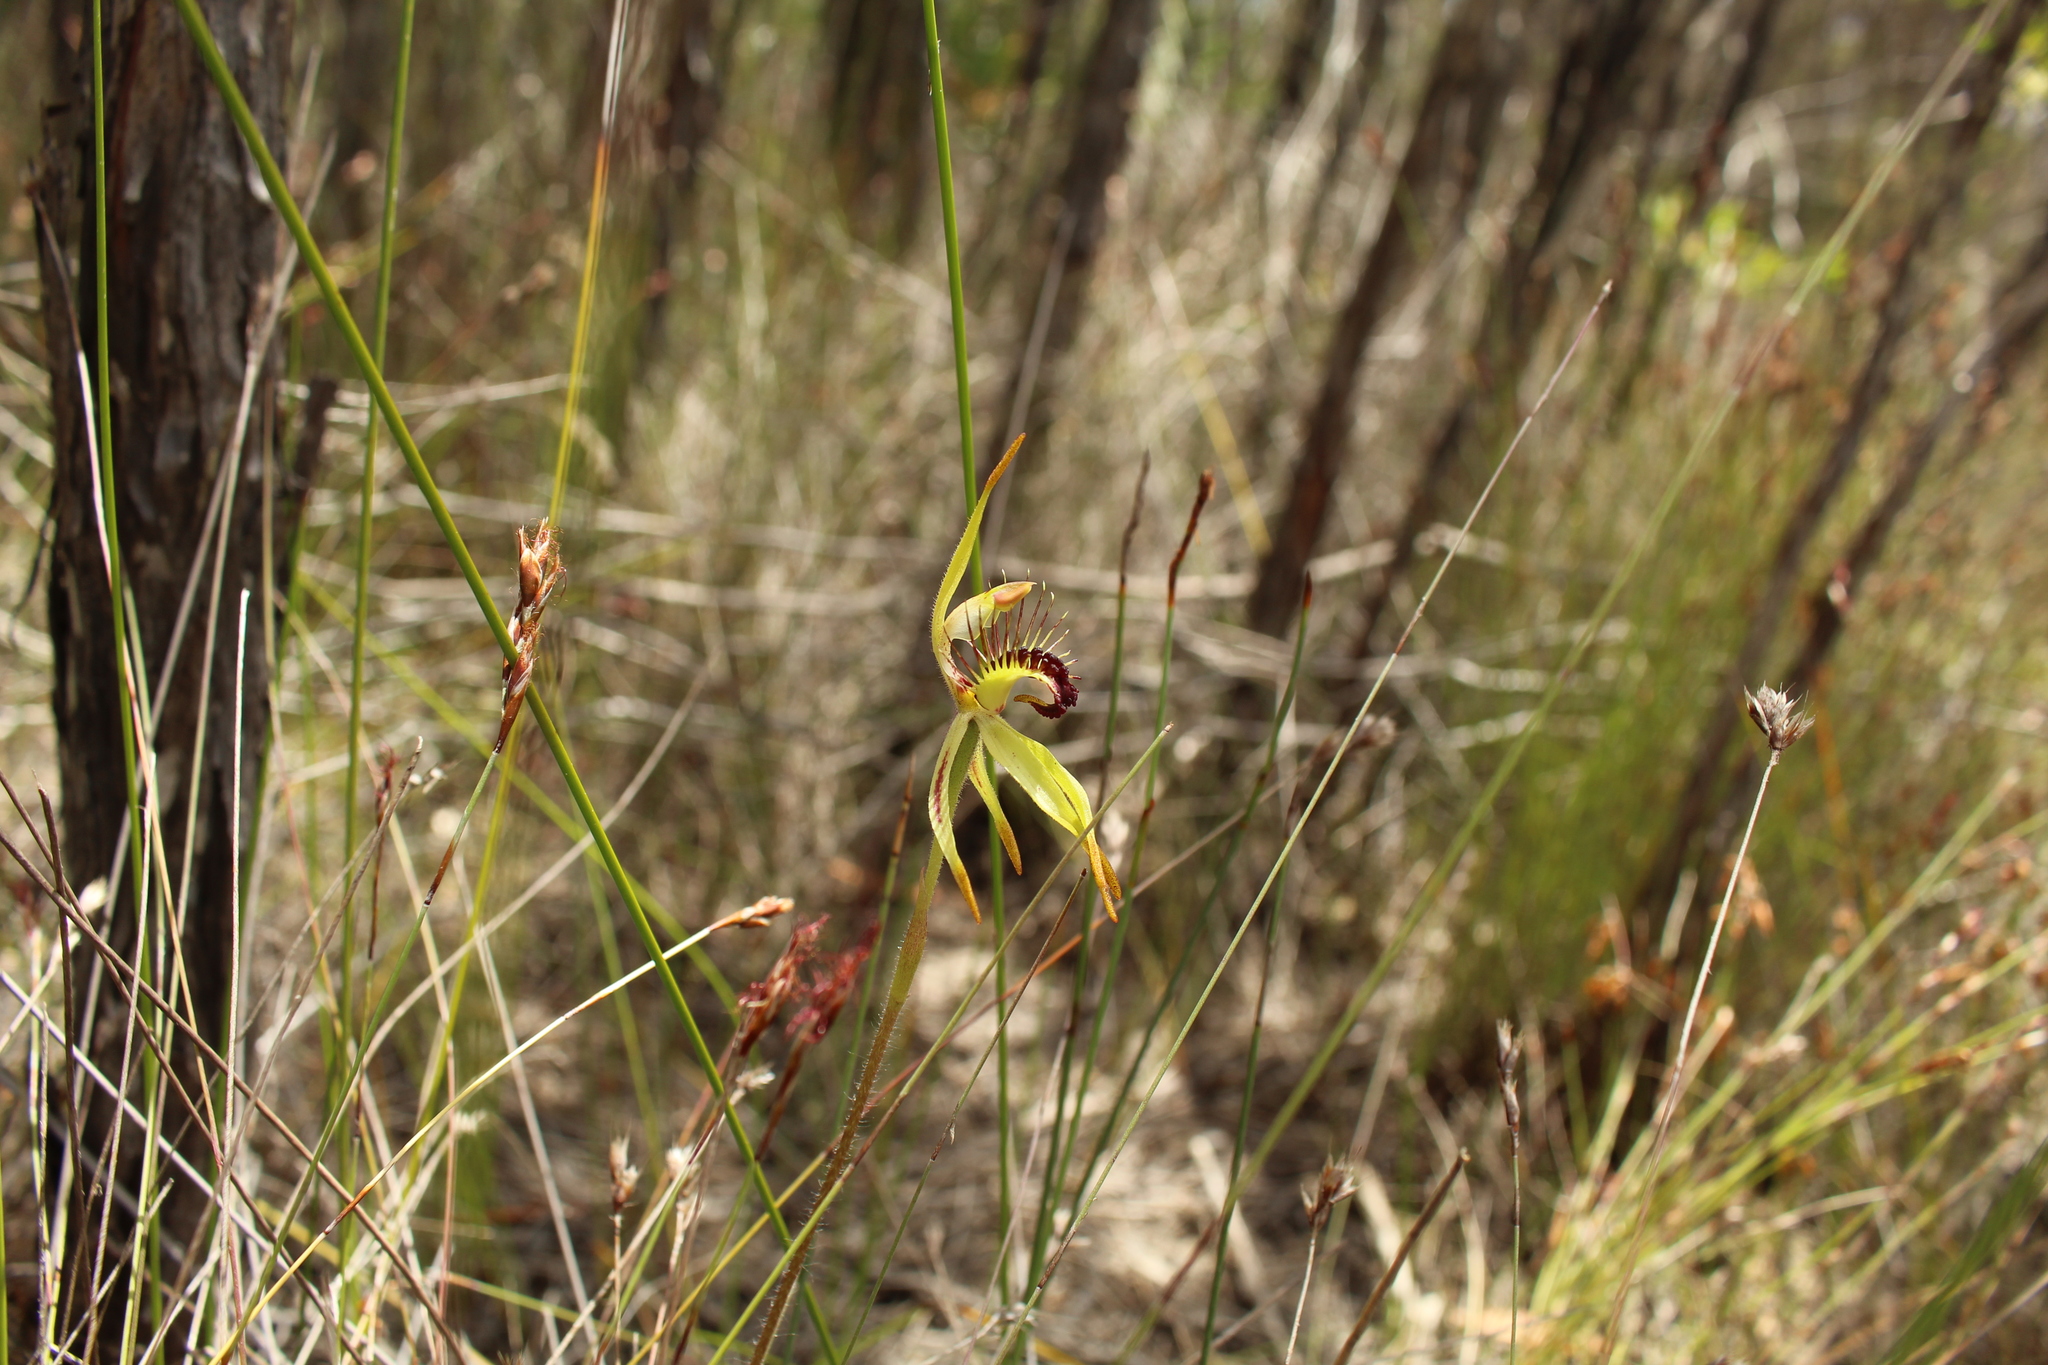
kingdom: Plantae
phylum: Tracheophyta
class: Liliopsida
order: Asparagales
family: Orchidaceae
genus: Caladenia
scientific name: Caladenia corynephora
